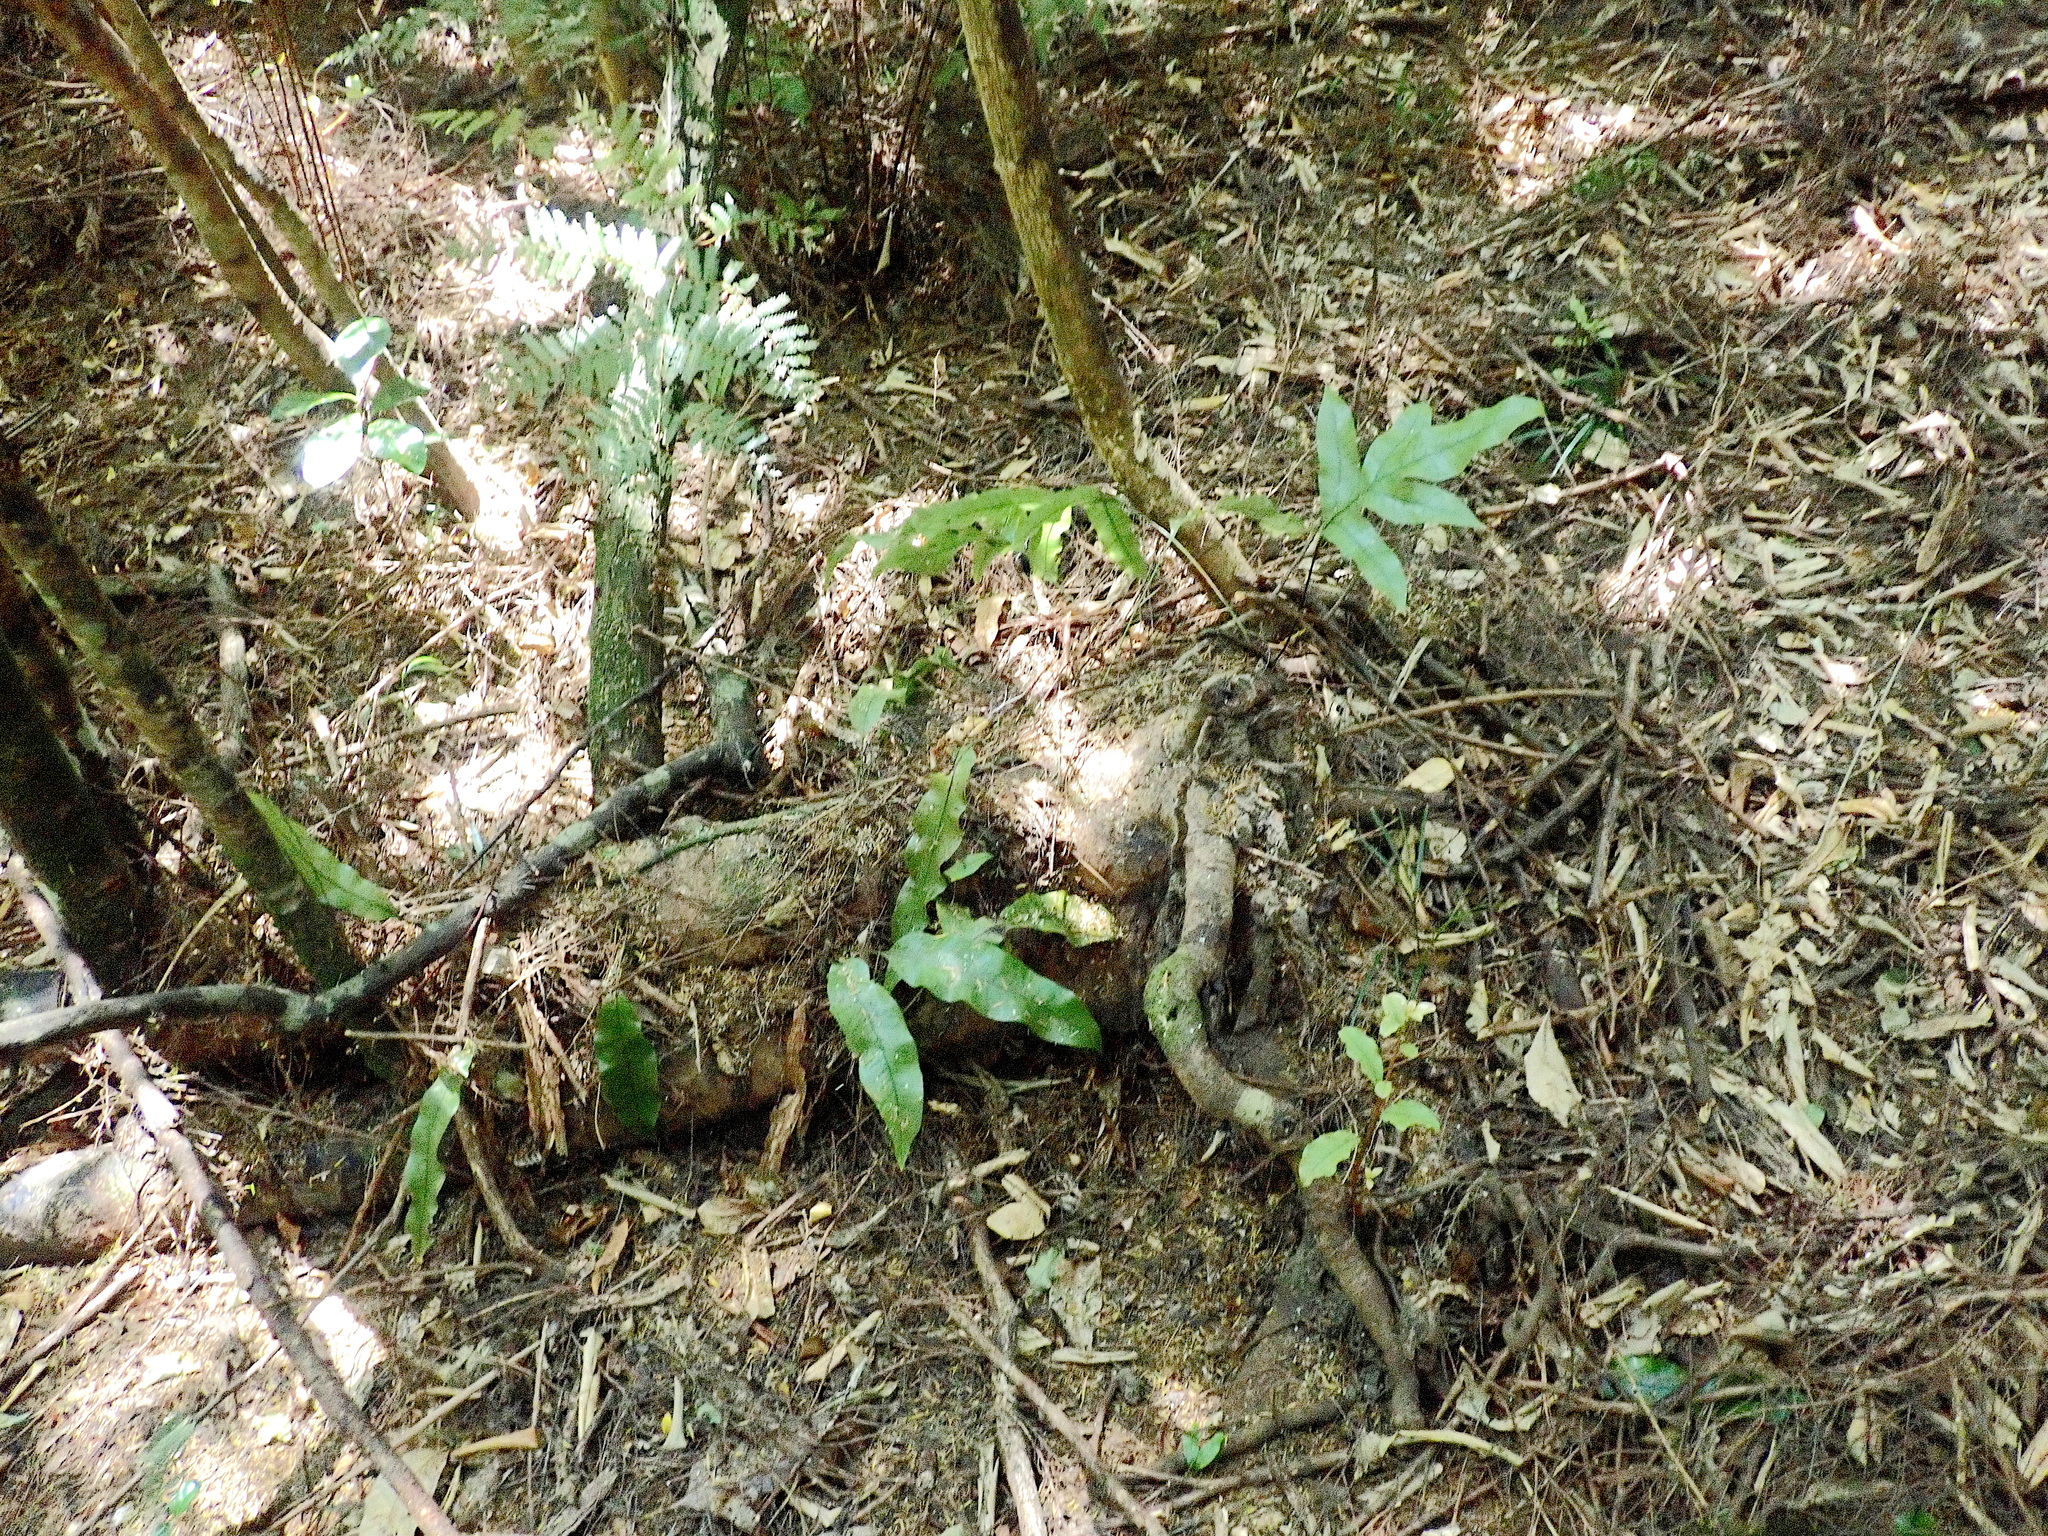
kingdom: Plantae
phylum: Tracheophyta
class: Magnoliopsida
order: Ericales
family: Primulaceae
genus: Myrsine
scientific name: Myrsine australis
